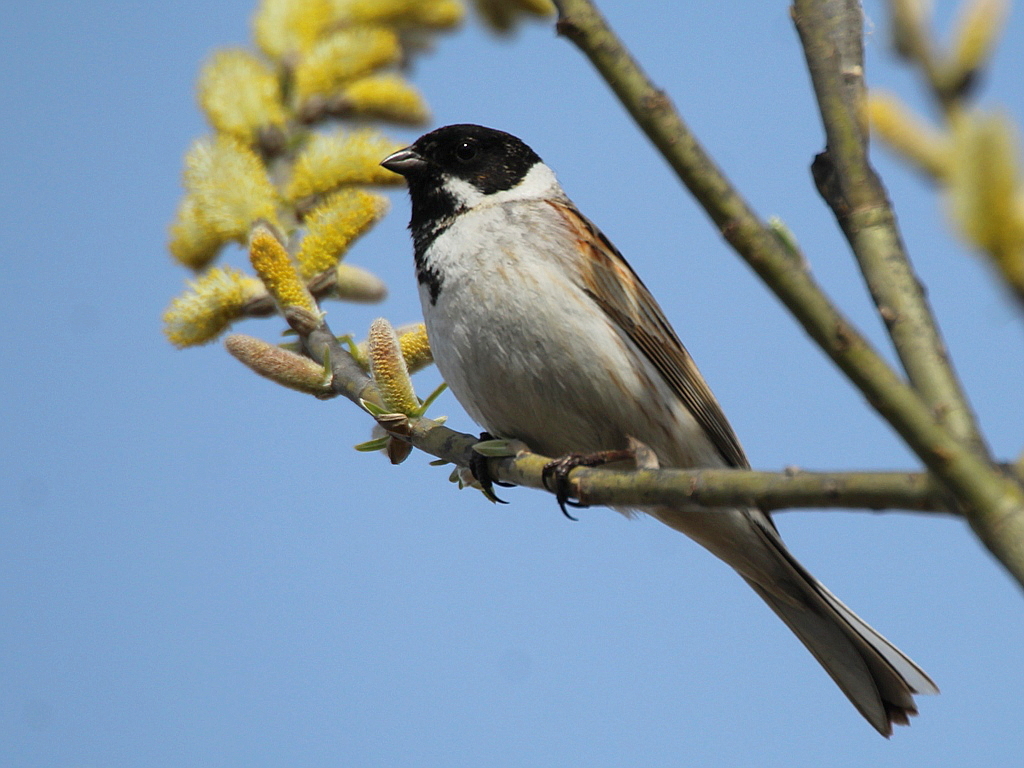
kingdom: Animalia
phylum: Chordata
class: Aves
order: Passeriformes
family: Emberizidae
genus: Emberiza
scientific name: Emberiza schoeniclus
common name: Reed bunting
